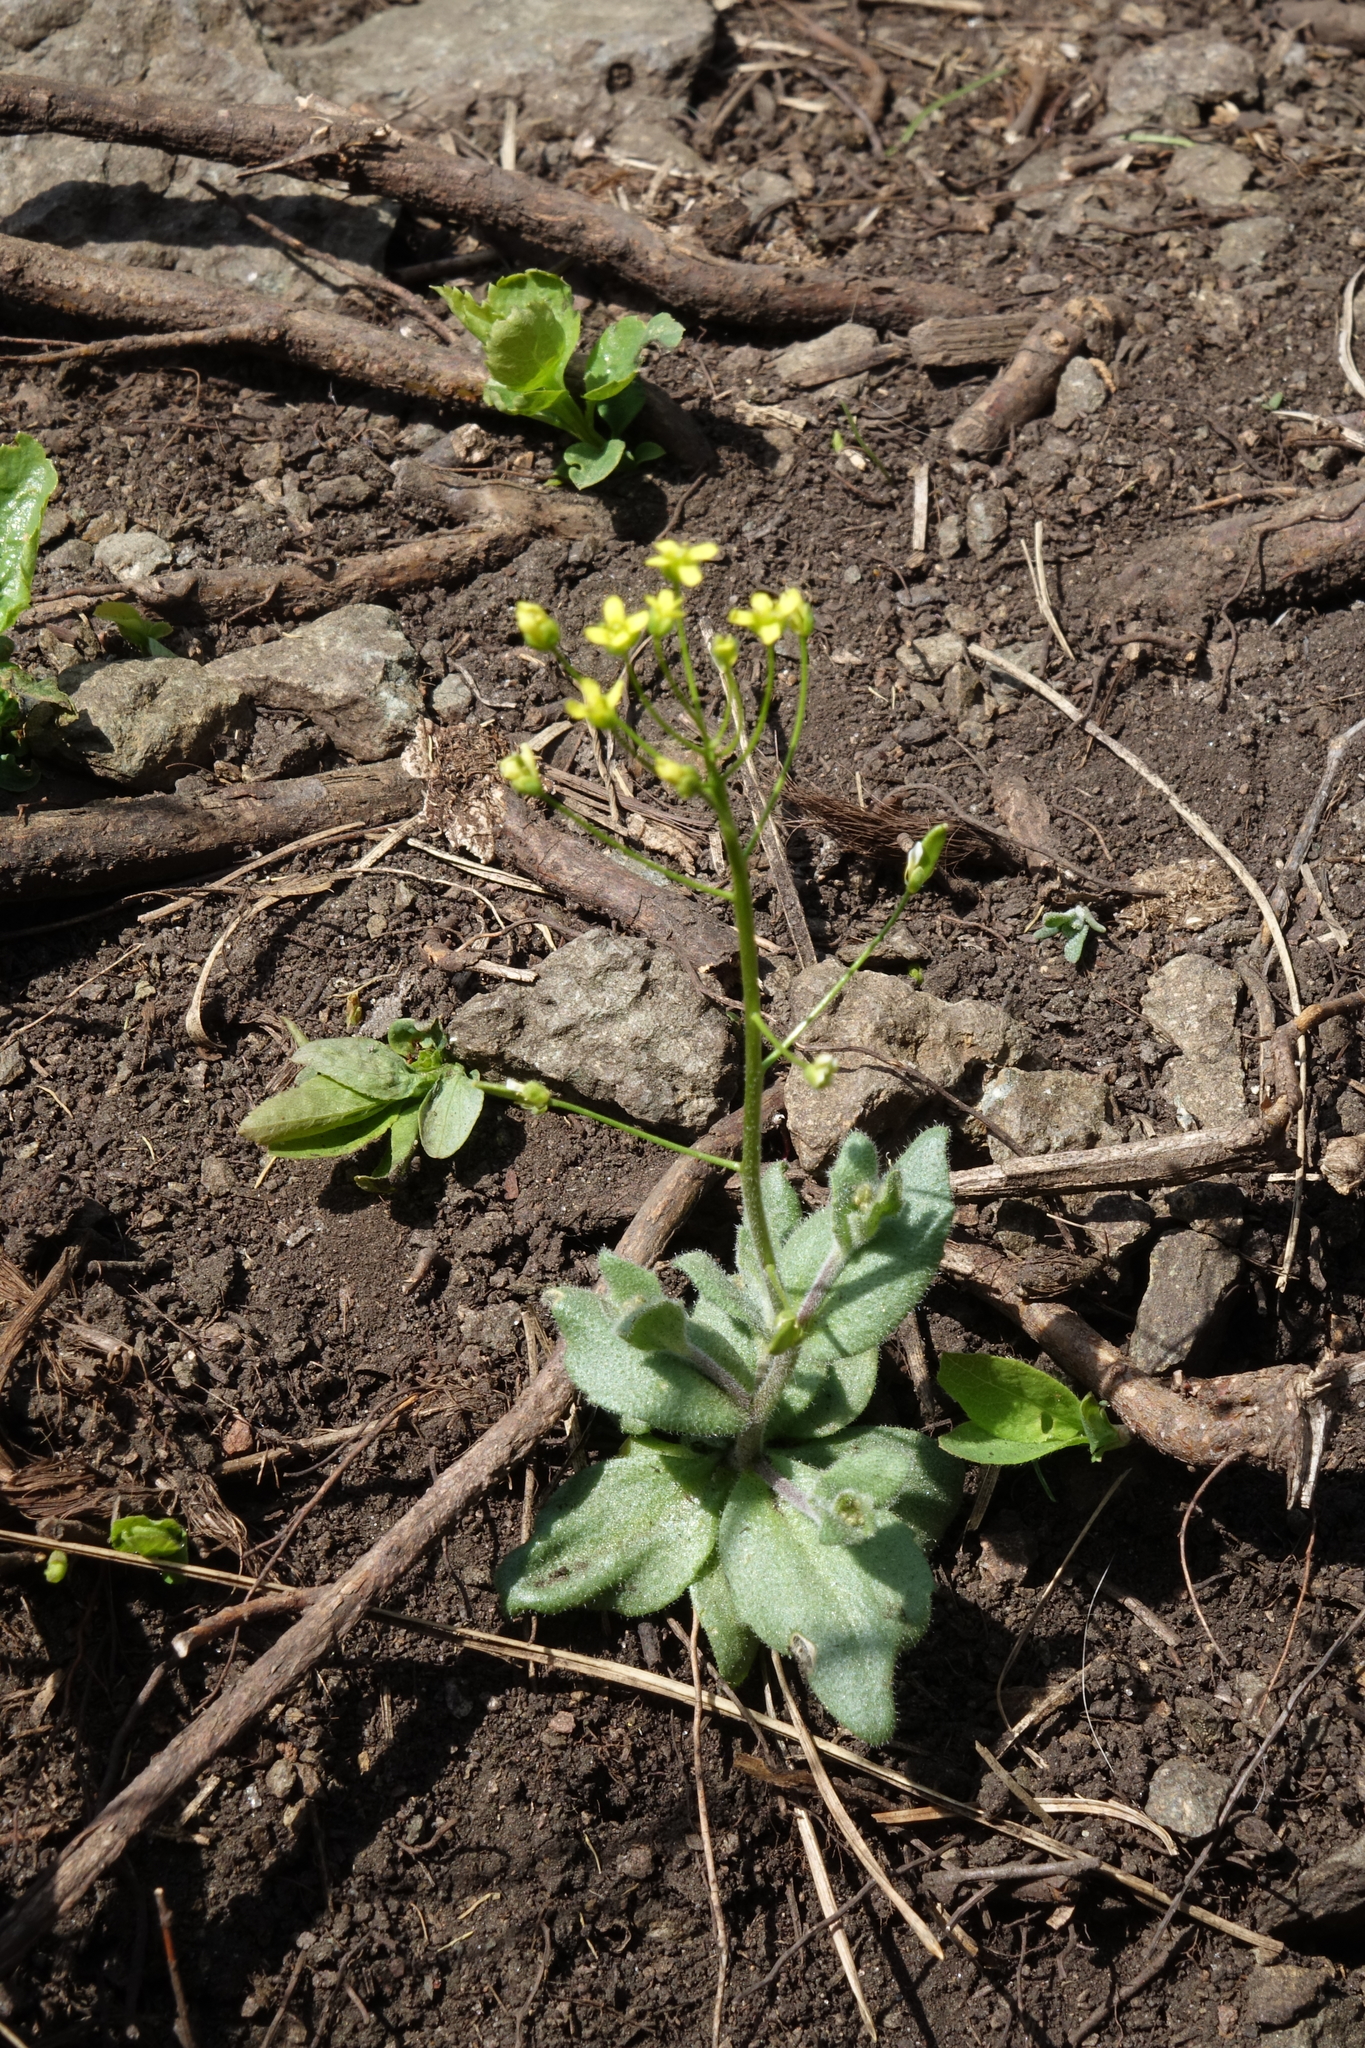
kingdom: Plantae
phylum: Tracheophyta
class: Magnoliopsida
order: Brassicales
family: Brassicaceae
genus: Draba
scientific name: Draba nemorosa
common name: Wood whitlow-grass
